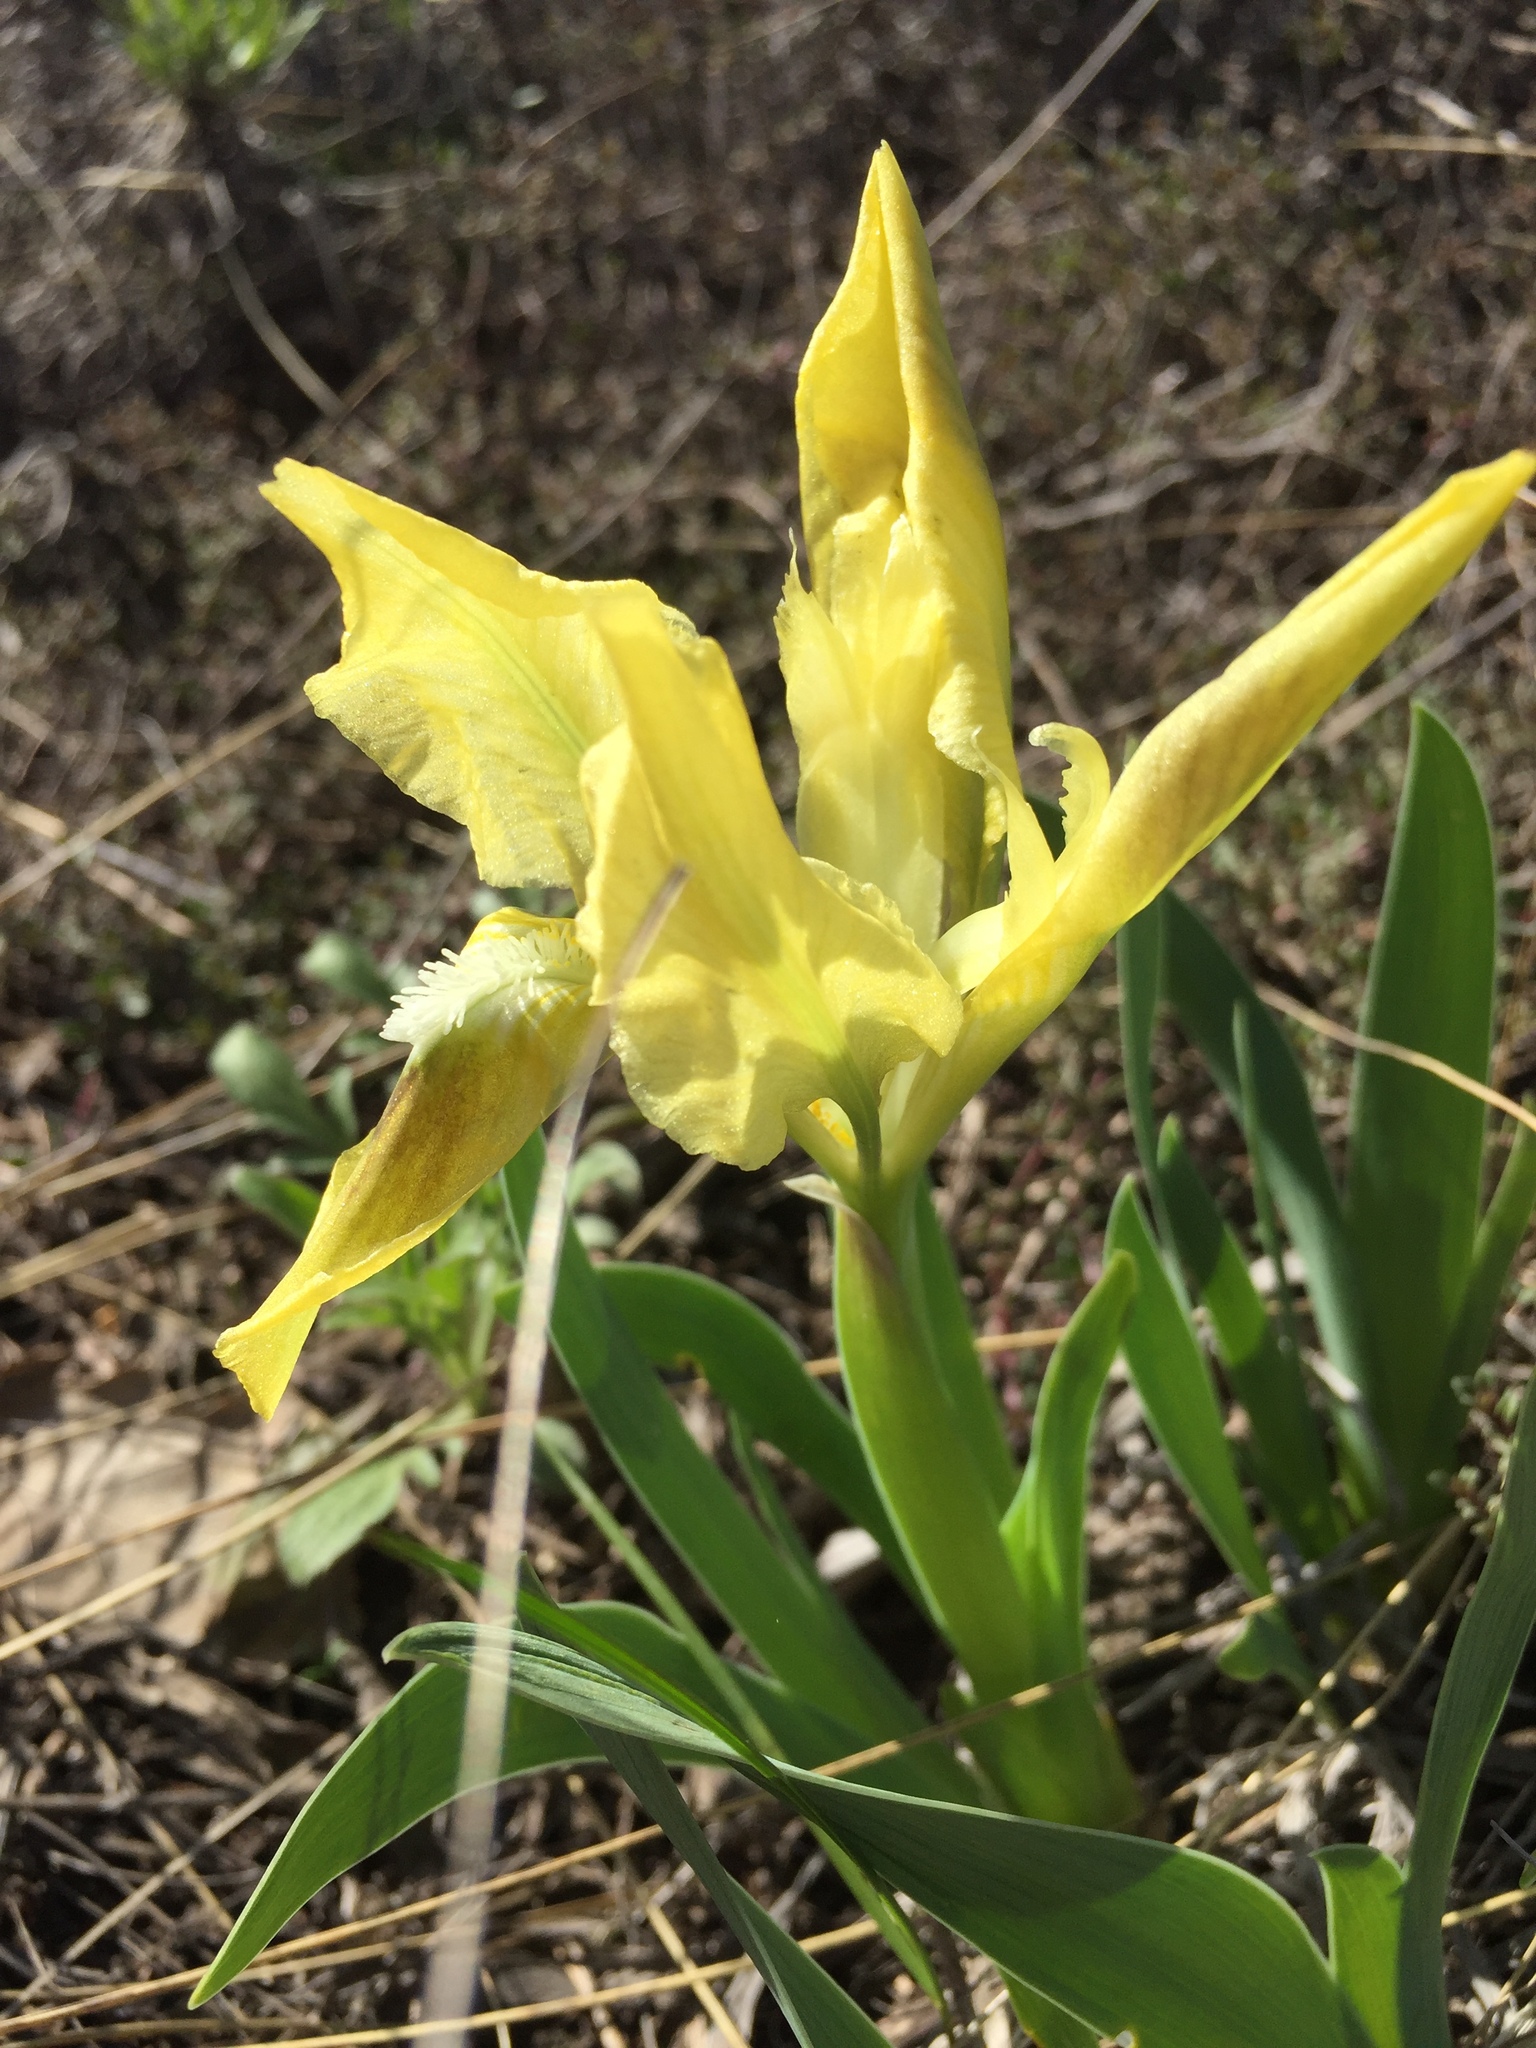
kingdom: Plantae
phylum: Tracheophyta
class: Liliopsida
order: Asparagales
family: Iridaceae
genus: Iris
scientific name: Iris pumila
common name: Dwarf iris
